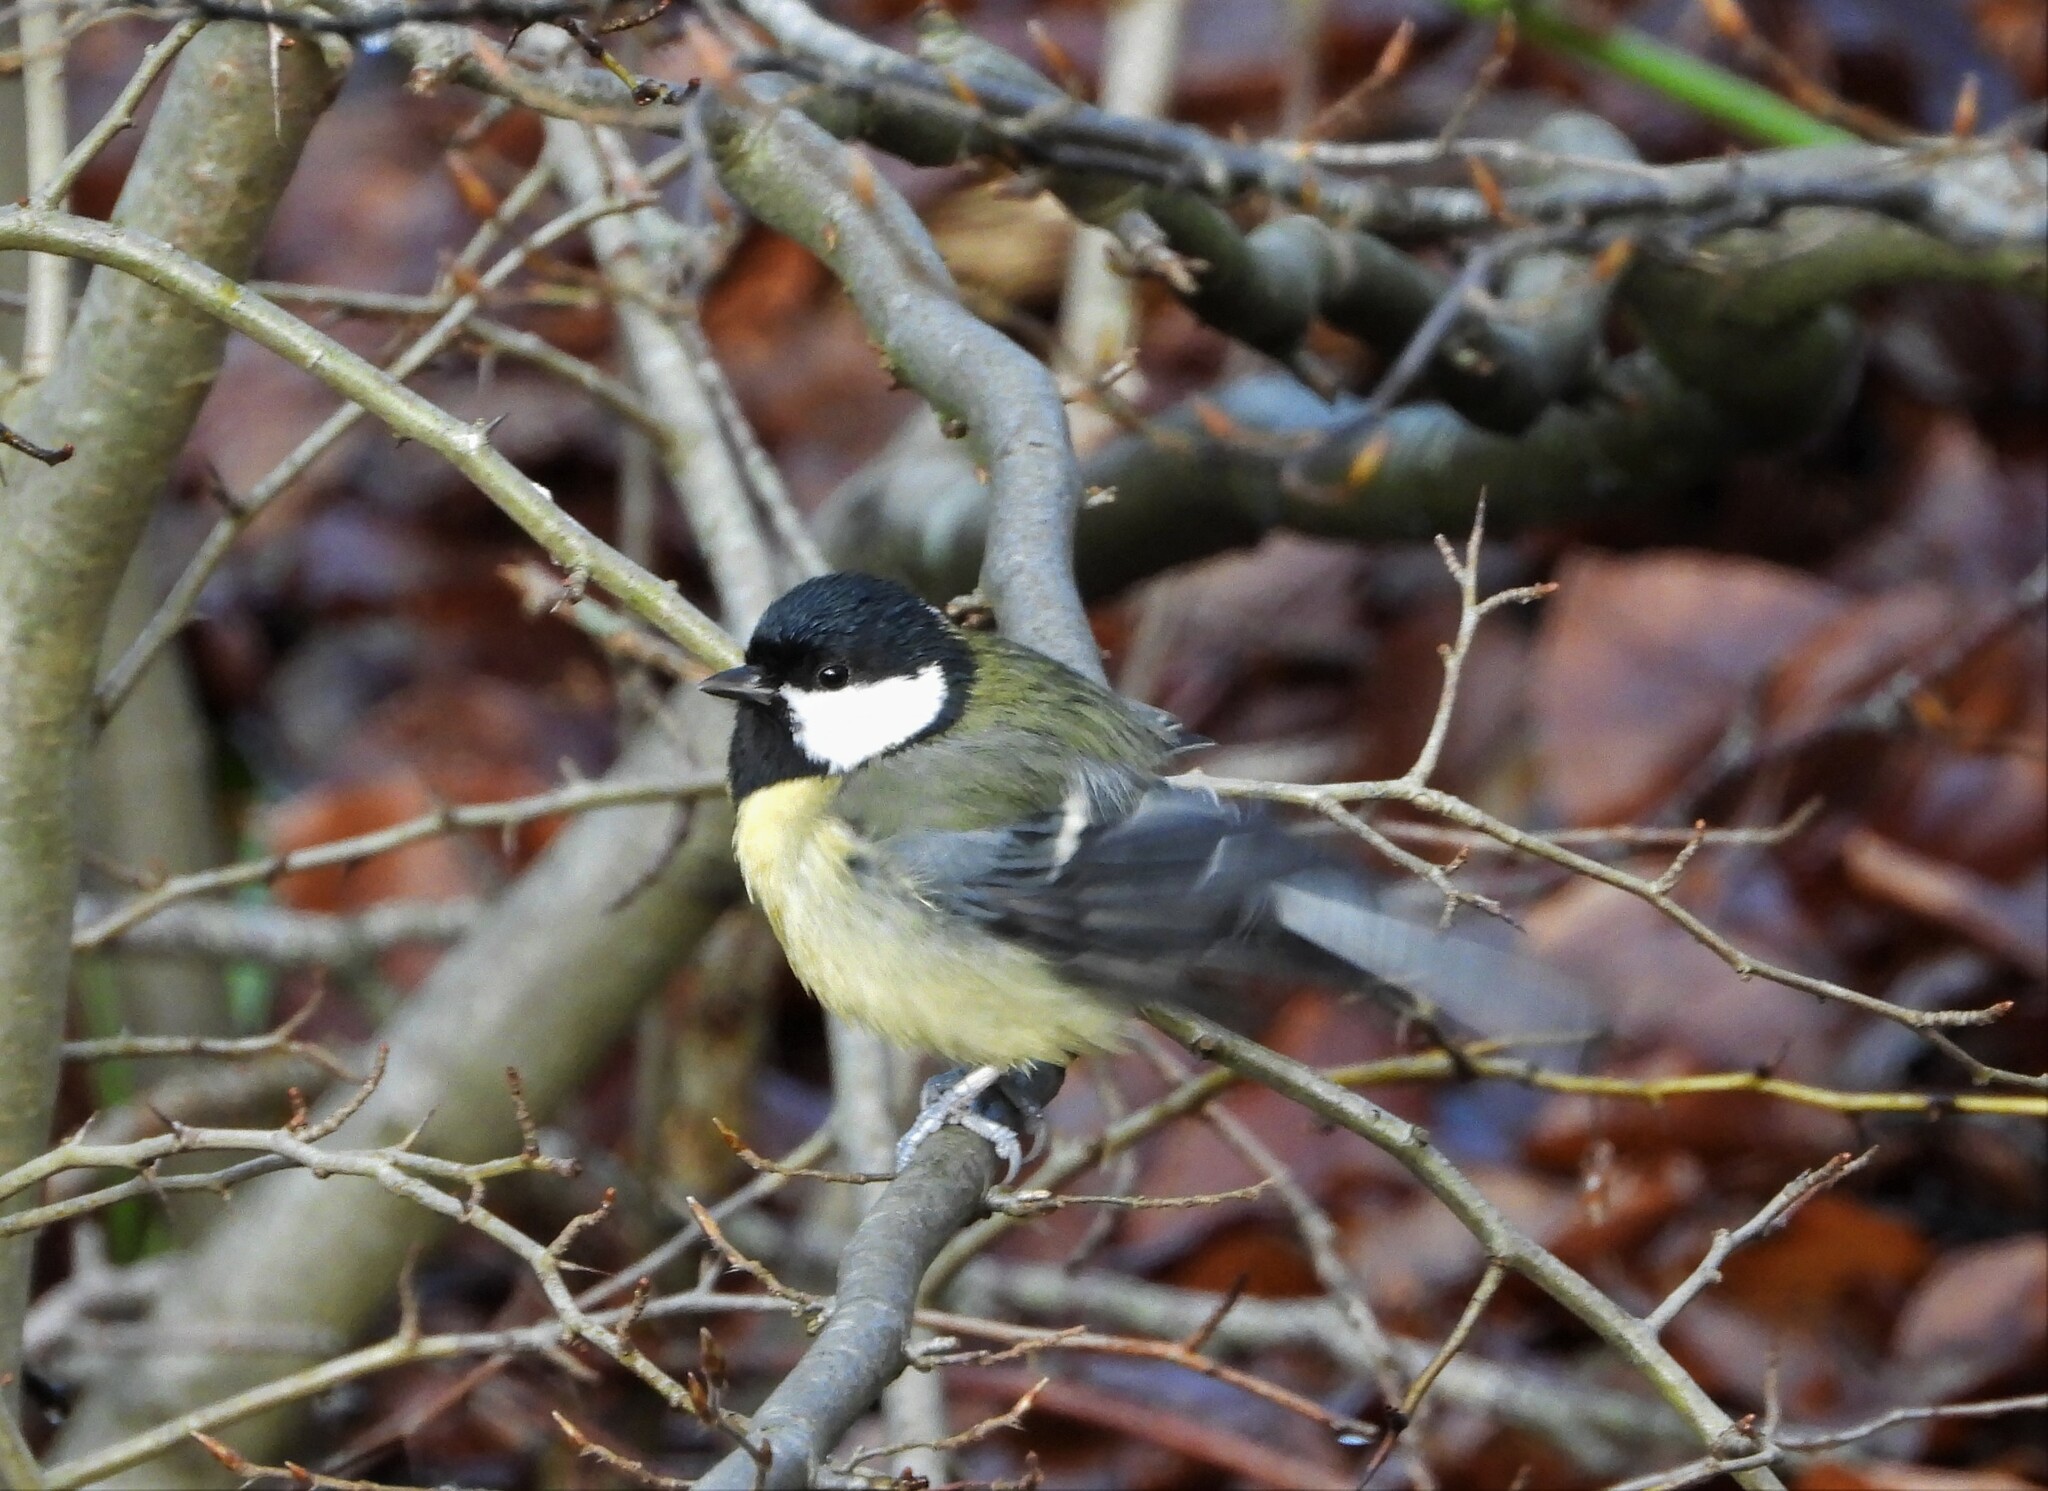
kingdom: Animalia
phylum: Chordata
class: Aves
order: Passeriformes
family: Paridae
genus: Parus
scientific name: Parus major
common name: Great tit
